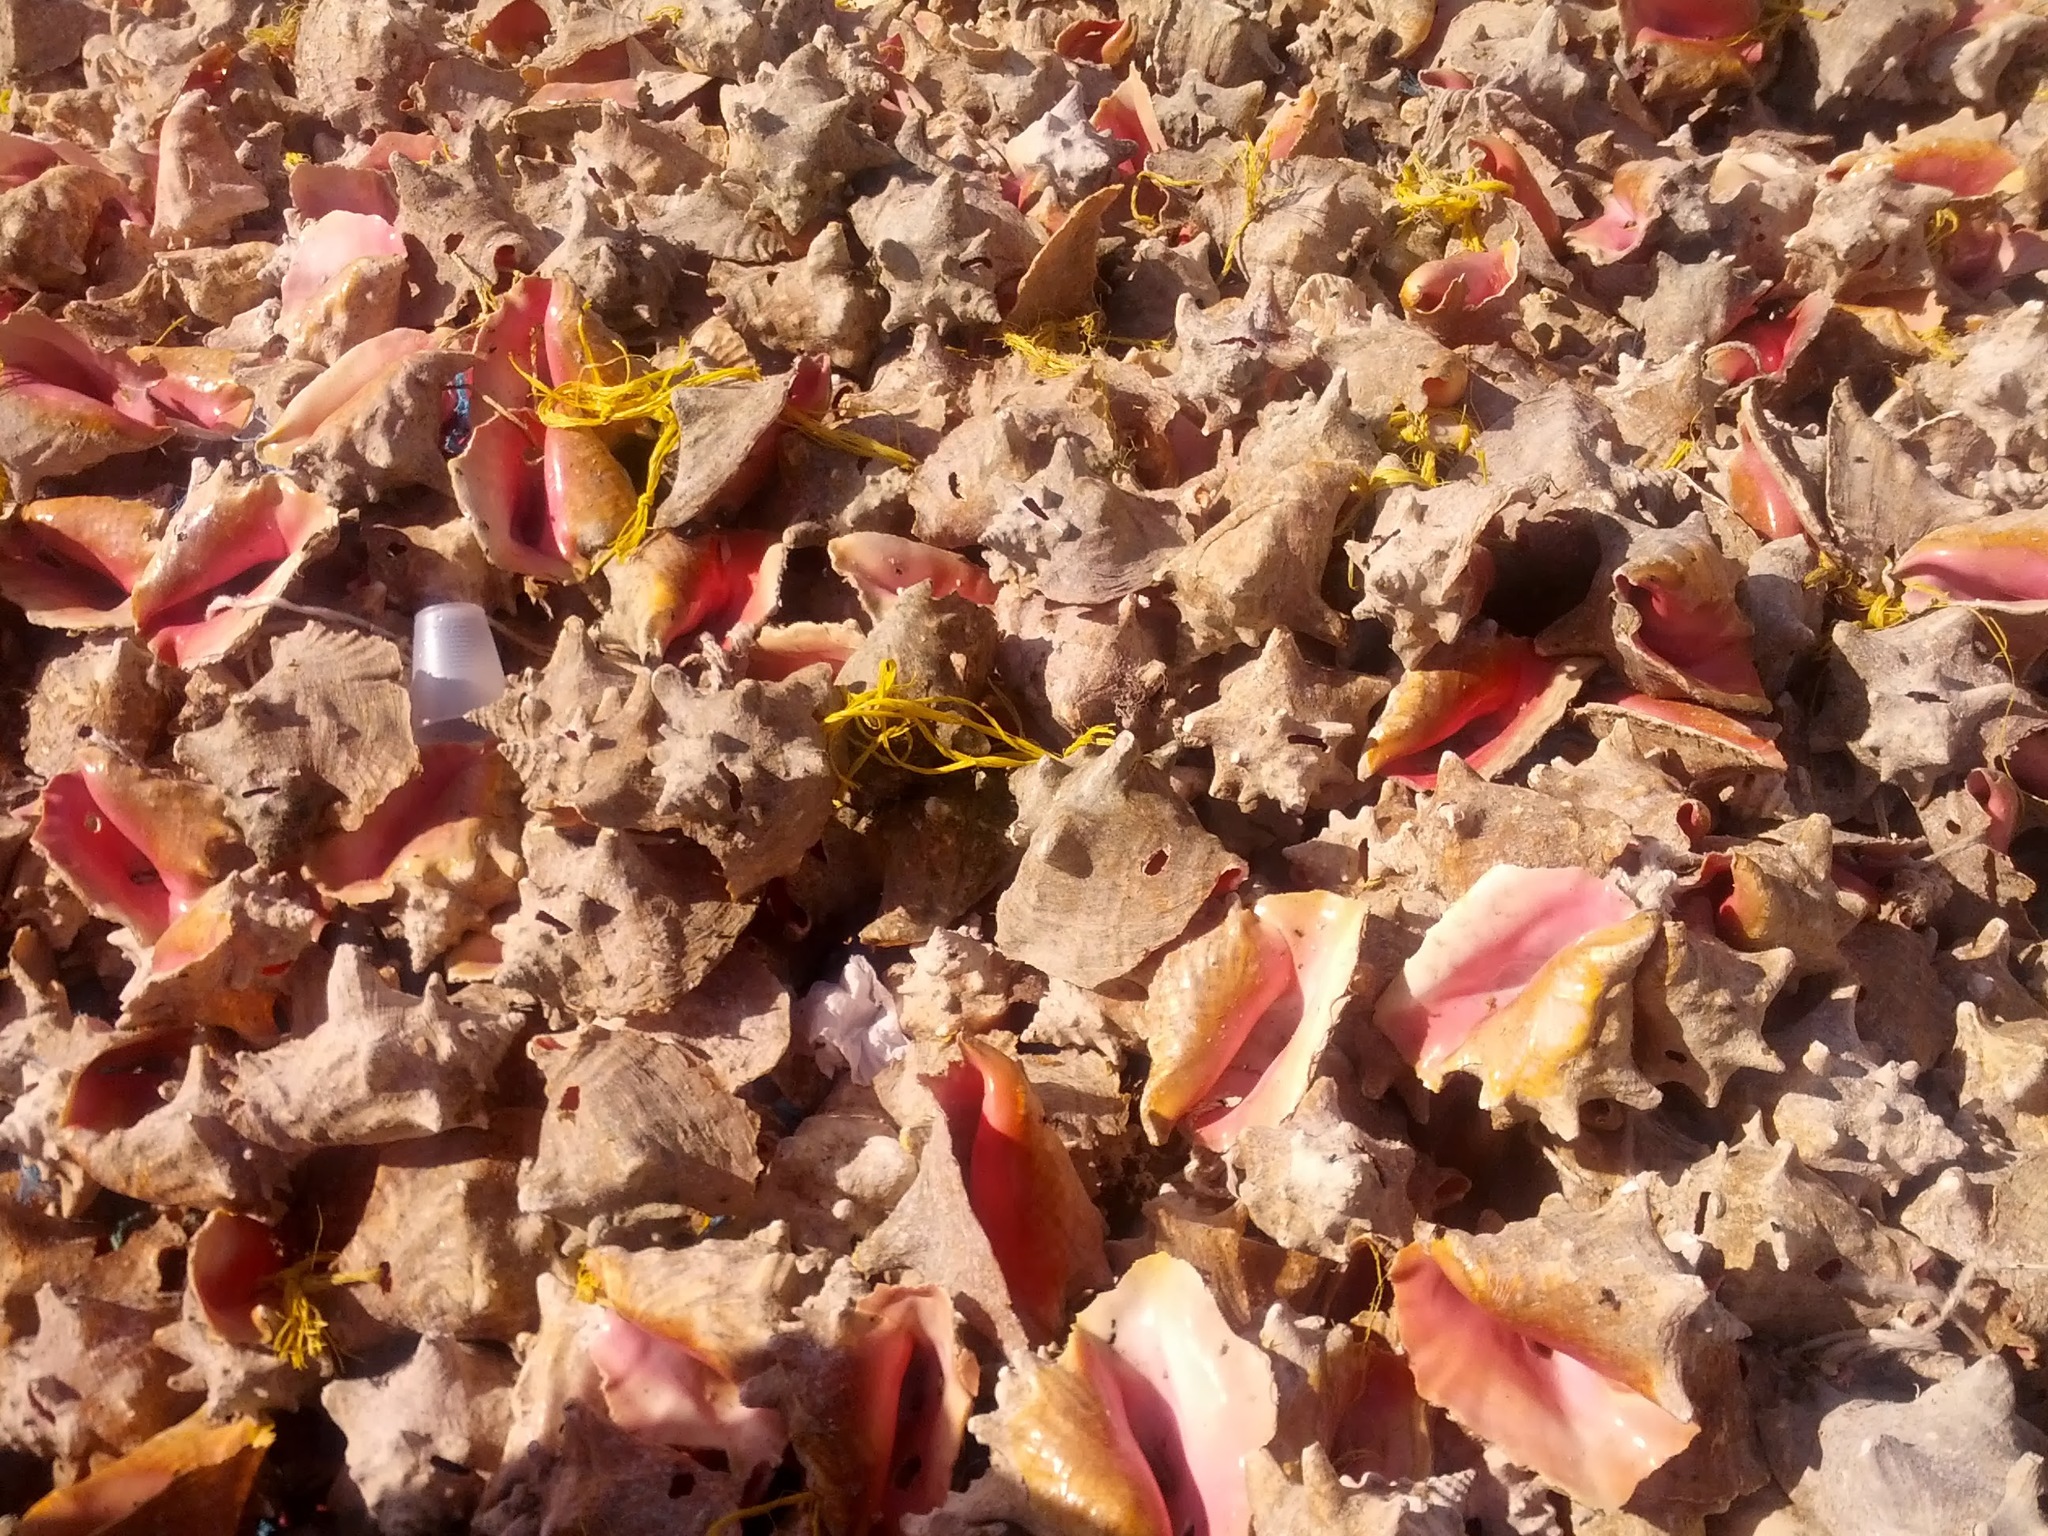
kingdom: Animalia
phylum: Mollusca
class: Gastropoda
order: Littorinimorpha
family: Strombidae
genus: Aliger
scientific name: Aliger gigas
